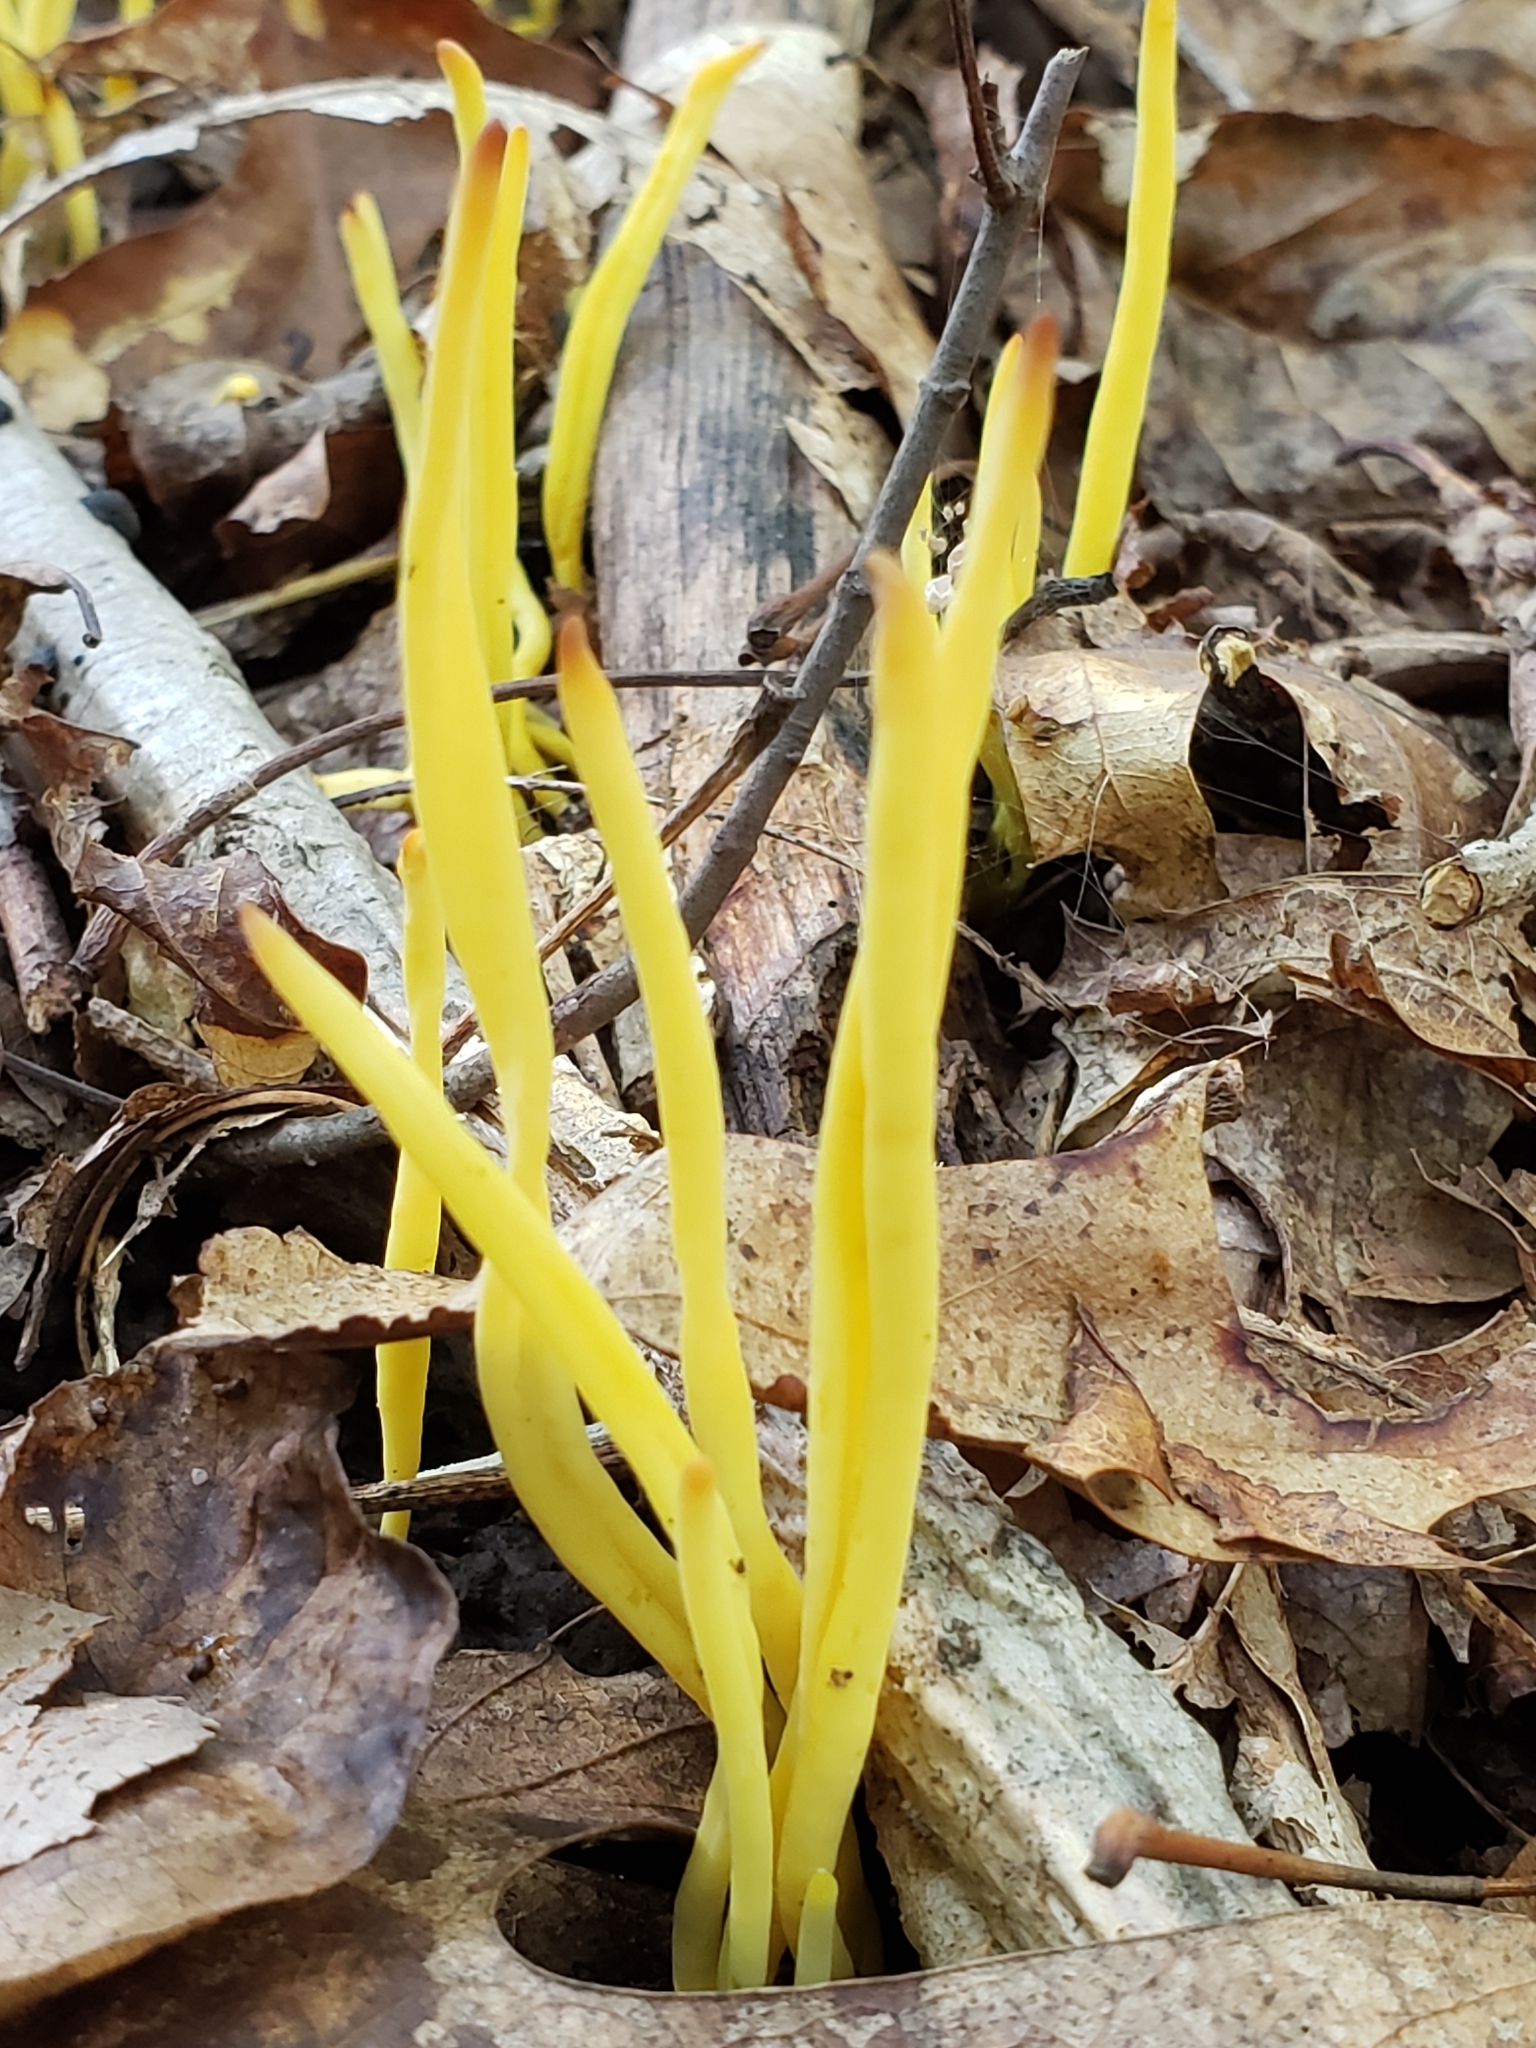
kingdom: Fungi
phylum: Basidiomycota
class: Agaricomycetes
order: Agaricales
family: Clavariaceae
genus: Clavulinopsis
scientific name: Clavulinopsis fusiformis
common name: Golden spindles
